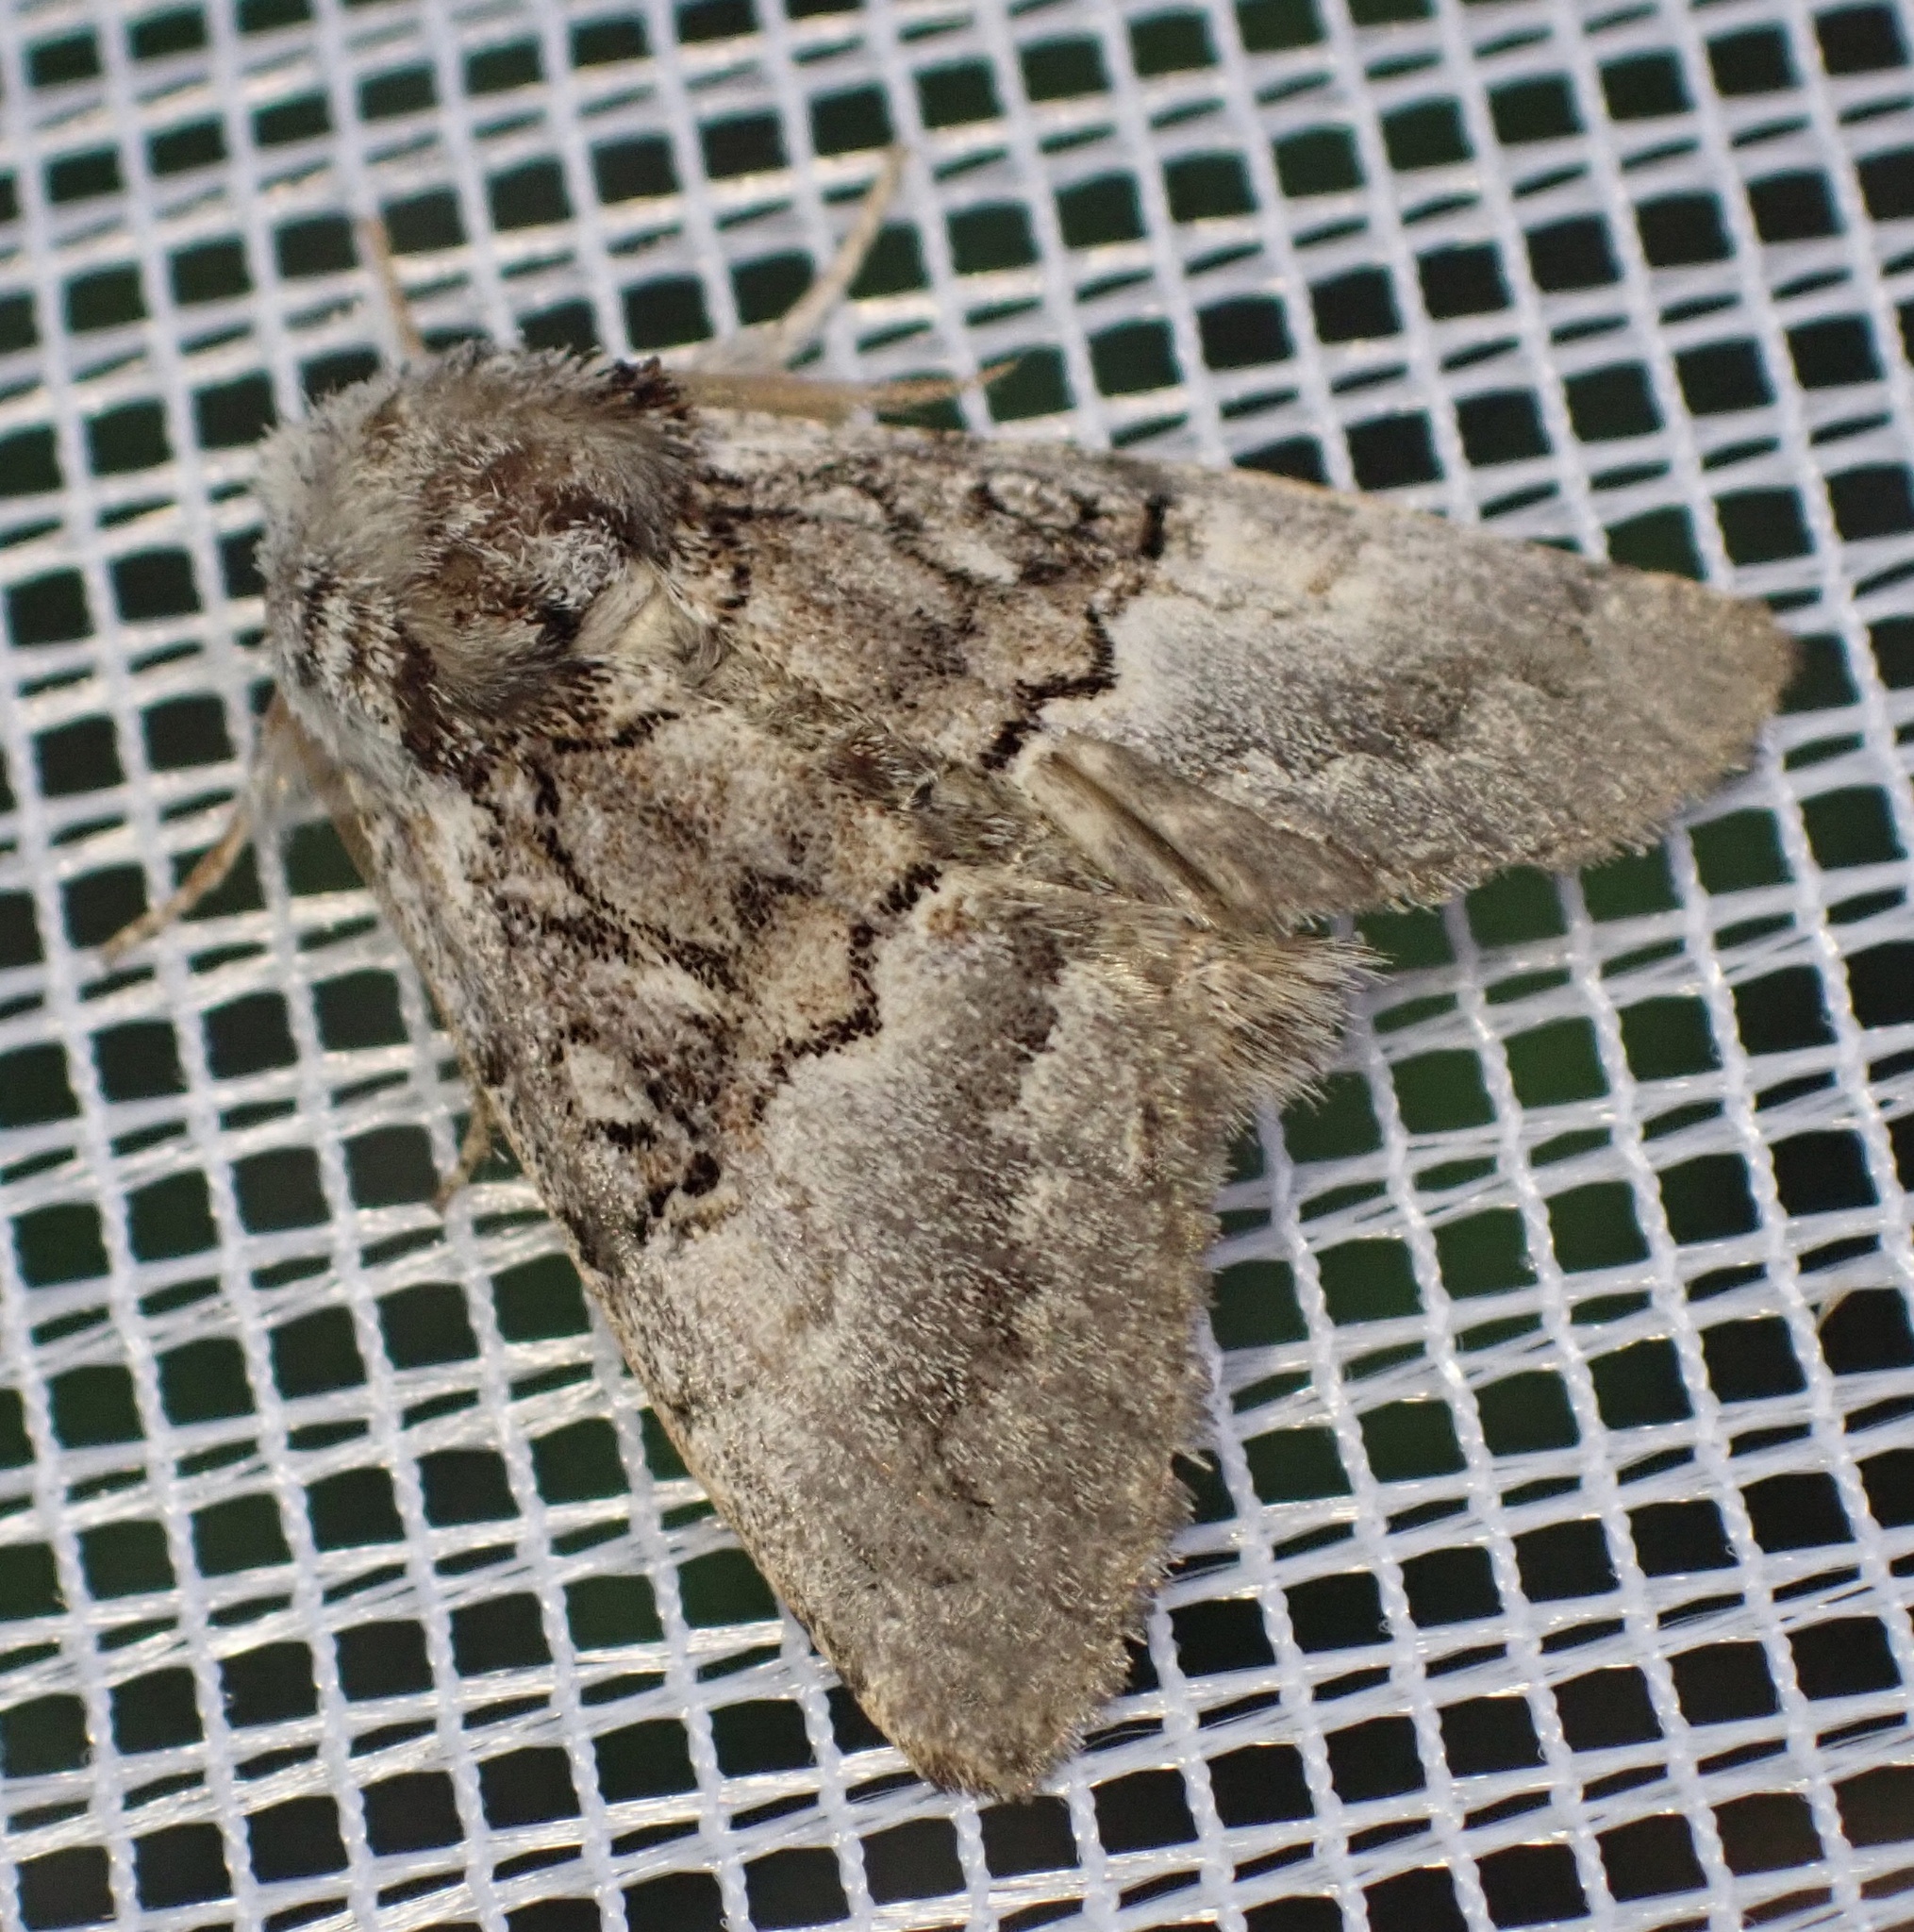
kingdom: Animalia
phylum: Arthropoda
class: Insecta
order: Lepidoptera
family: Noctuidae
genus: Colocasia
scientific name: Colocasia coryli
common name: Nut-tree tussock
